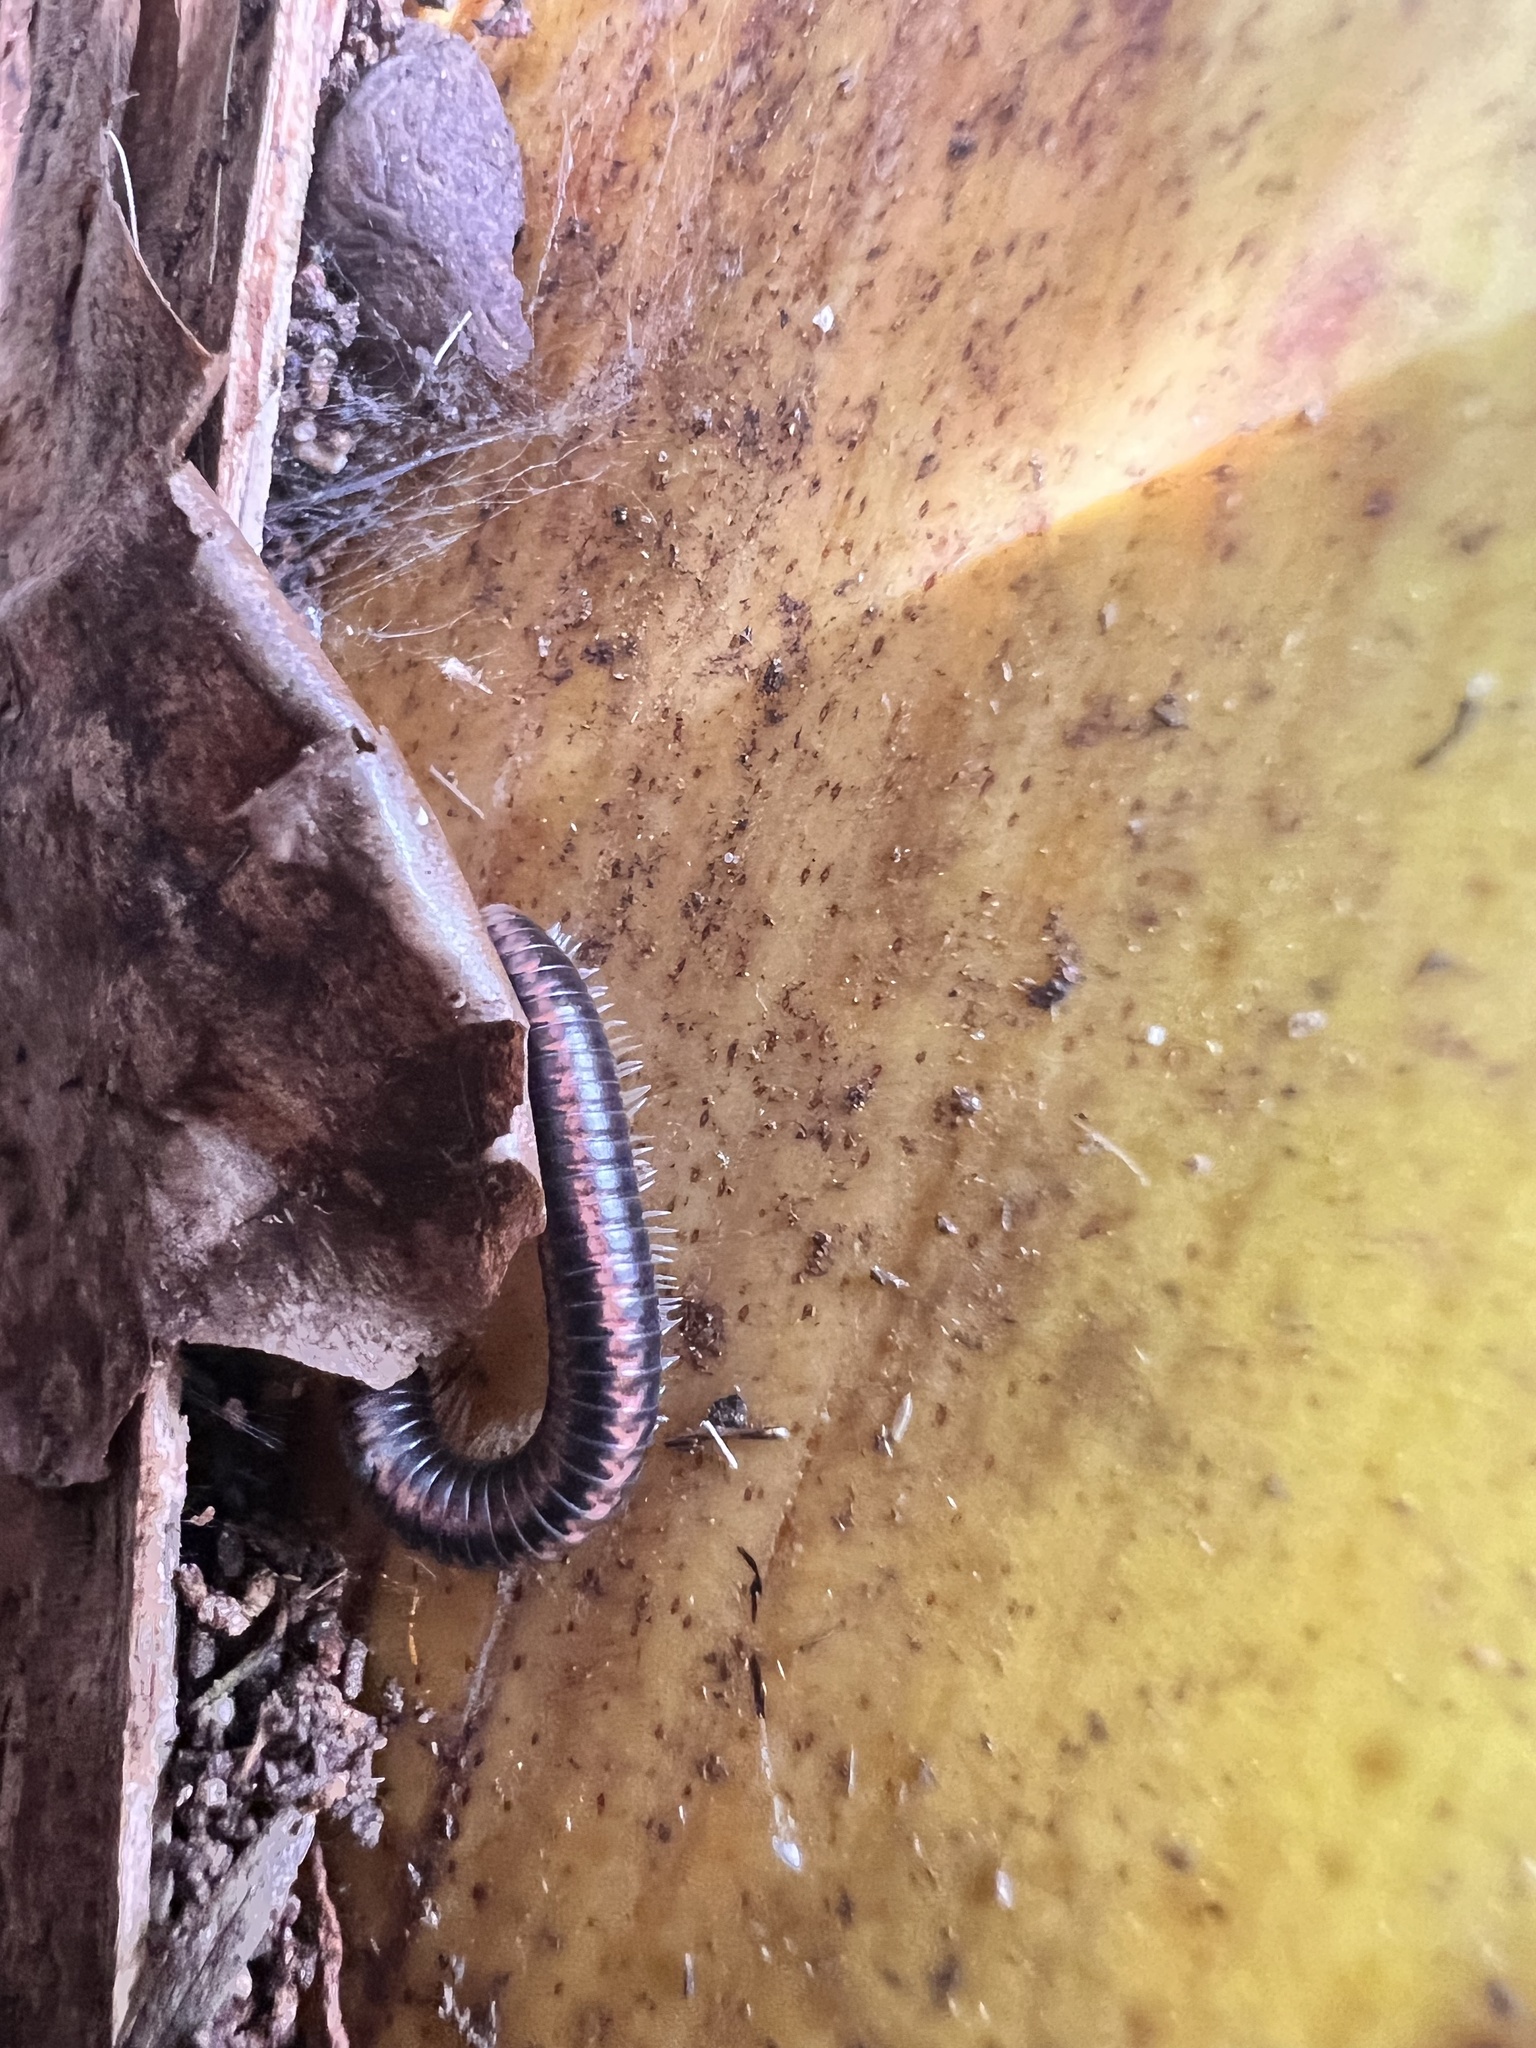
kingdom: Animalia
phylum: Arthropoda
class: Diplopoda
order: Spirobolida
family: Spirobolellidae
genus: Spirobolellus
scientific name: Spirobolellus antipodarum
